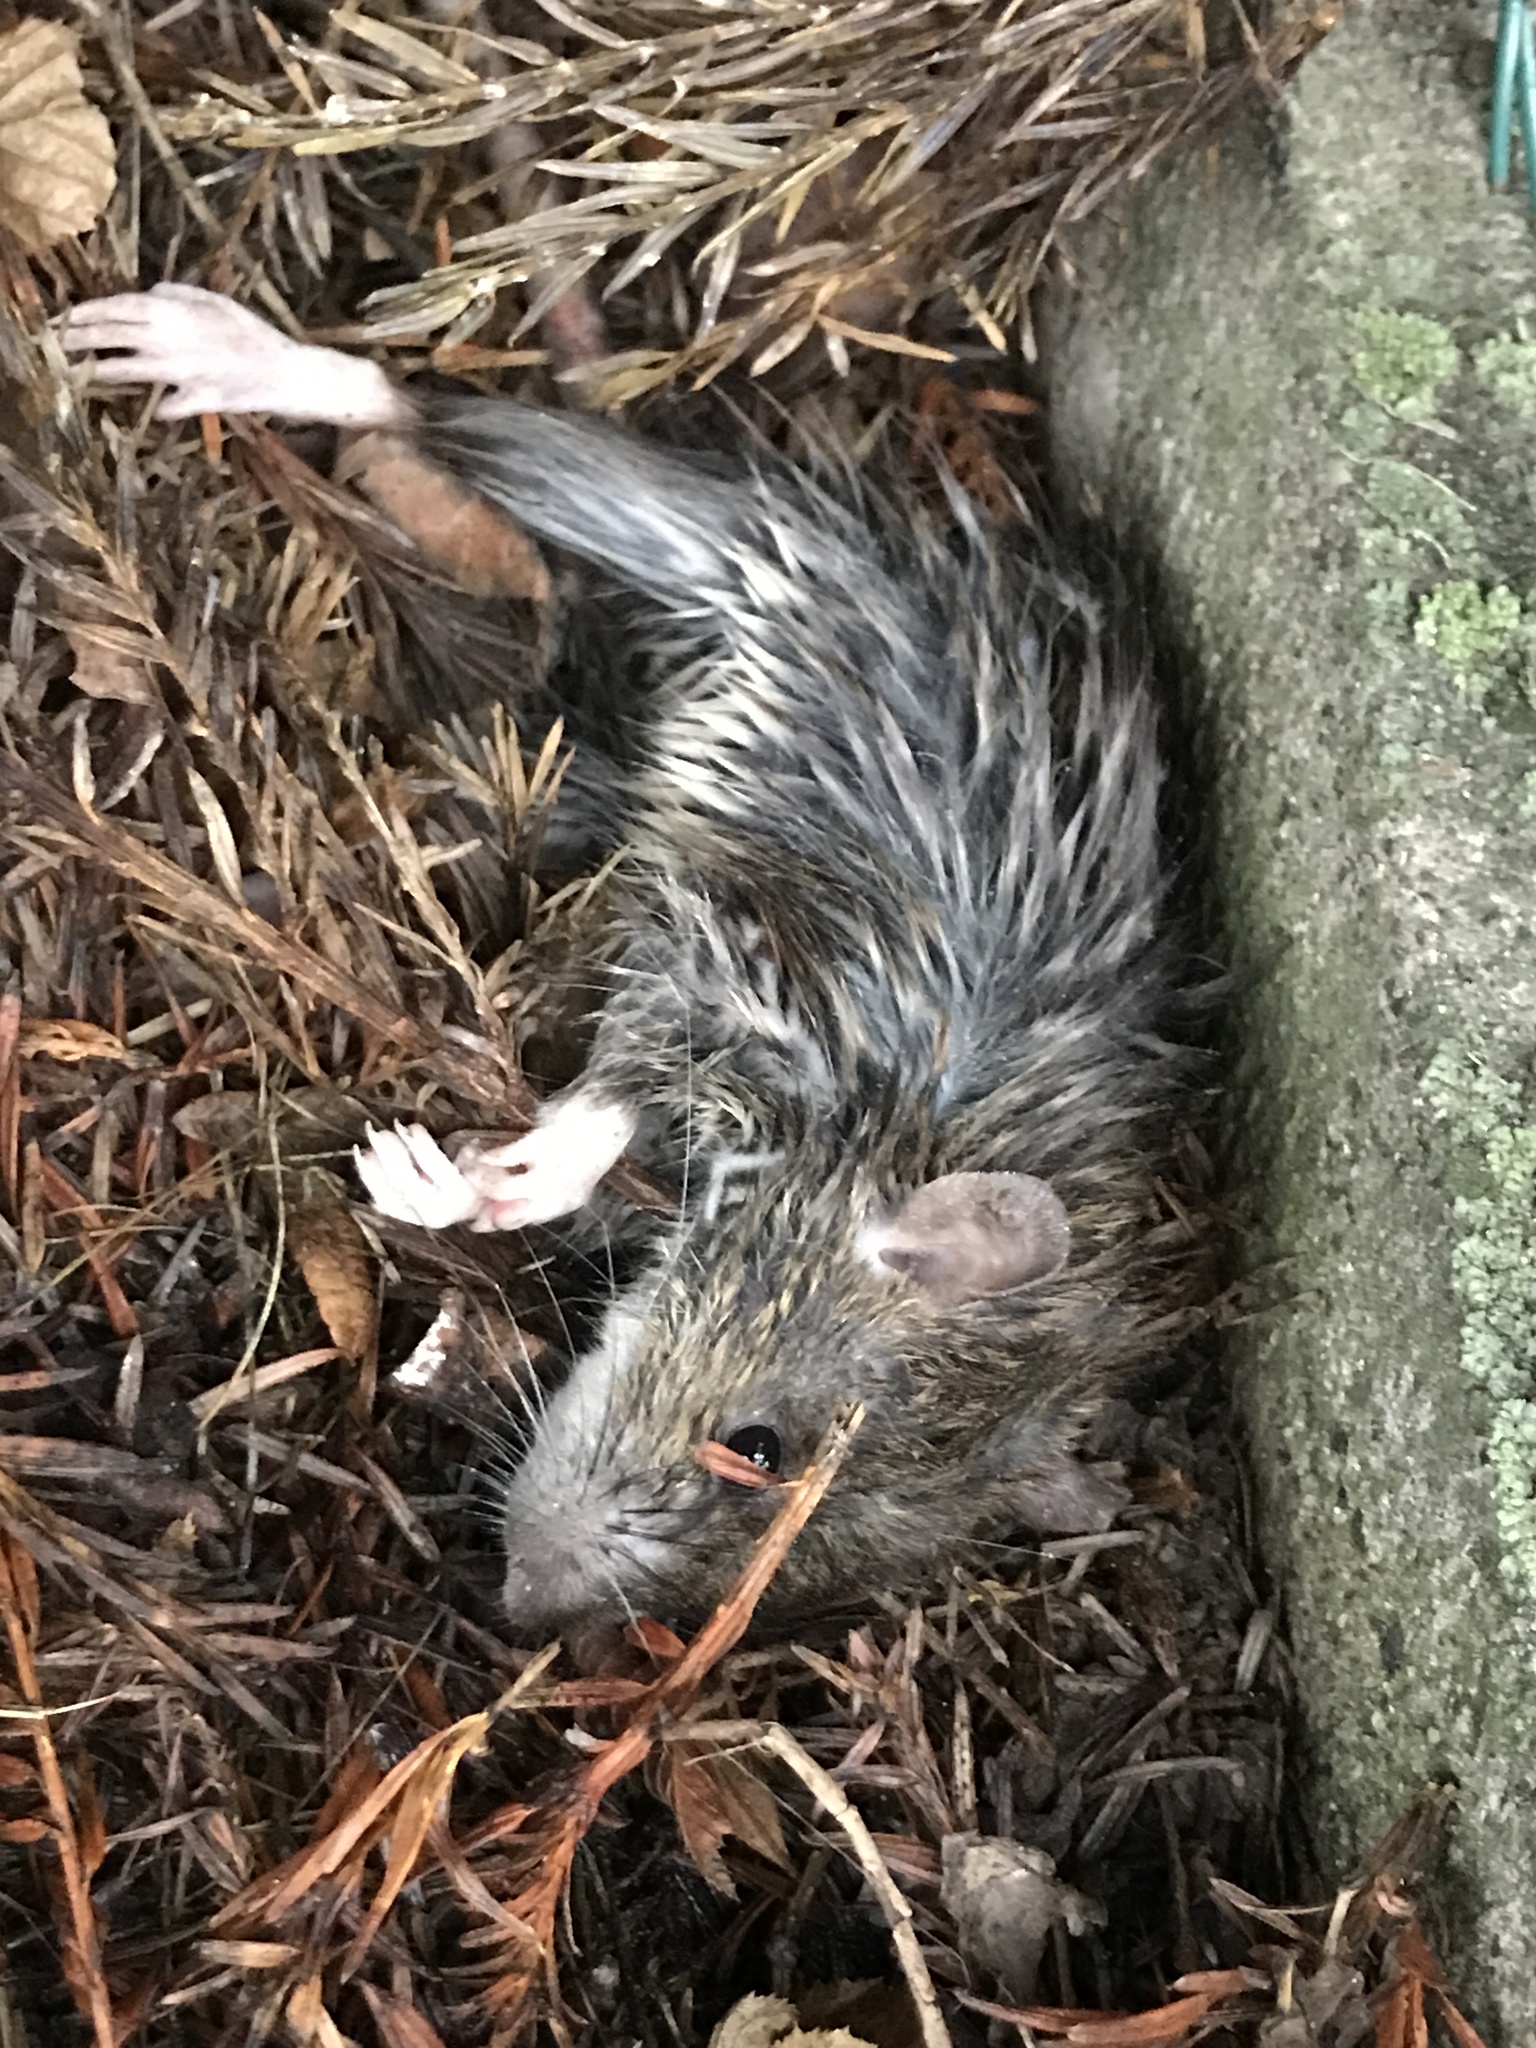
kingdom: Animalia
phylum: Chordata
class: Mammalia
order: Rodentia
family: Muridae
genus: Rattus
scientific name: Rattus norvegicus
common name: Brown rat
